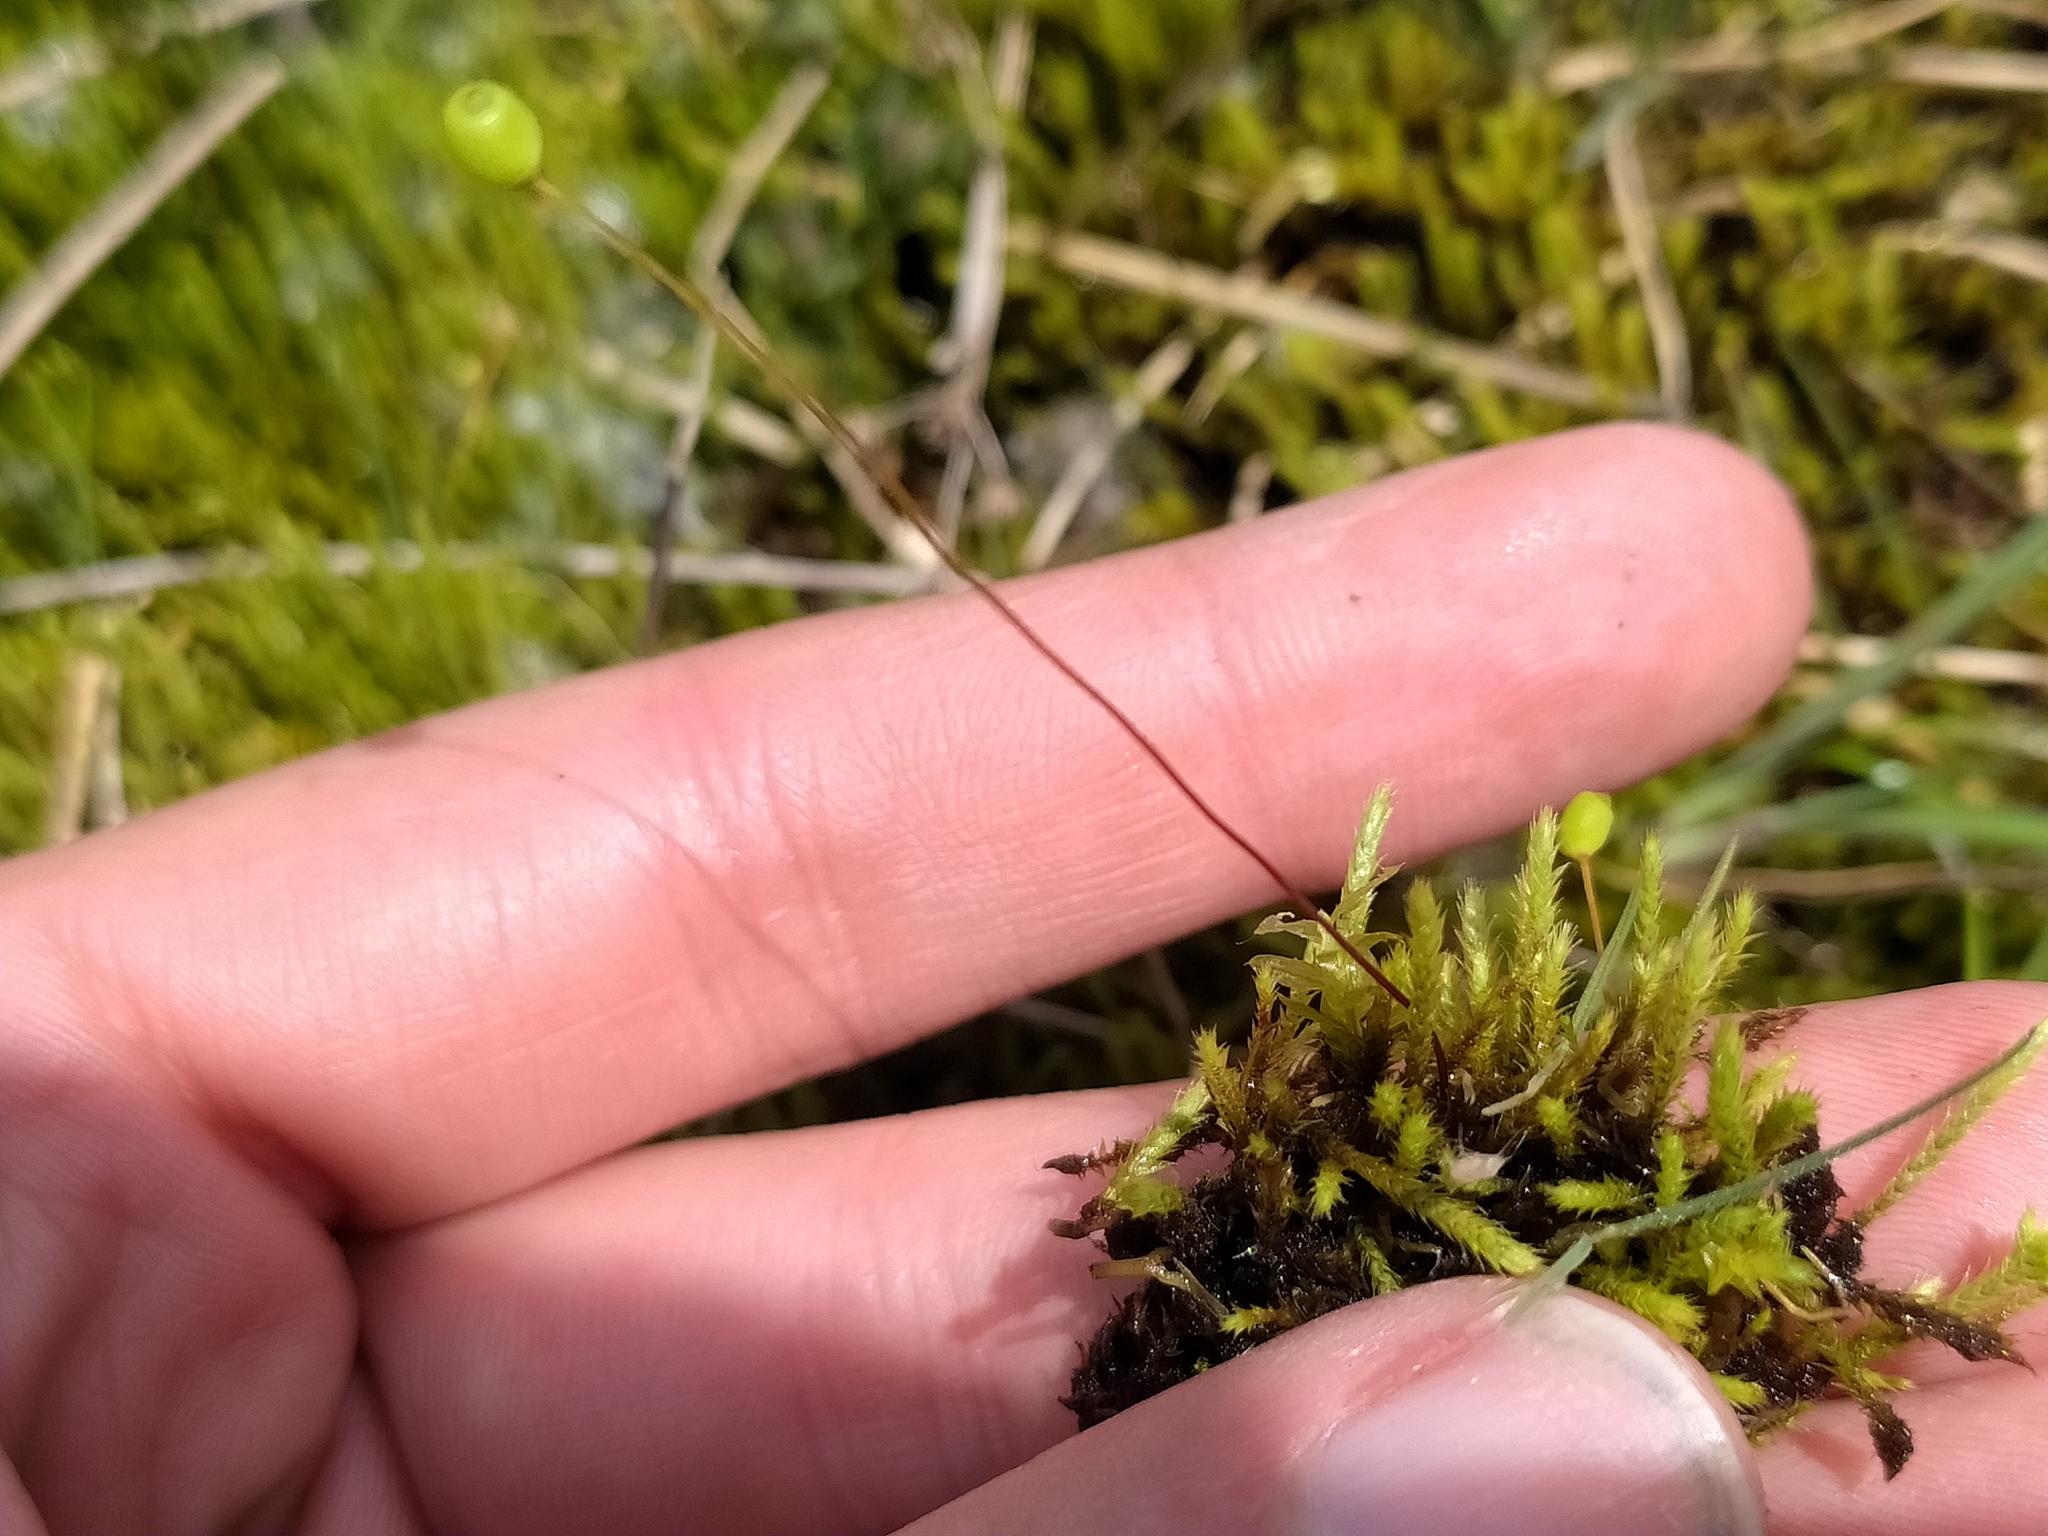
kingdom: Plantae
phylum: Bryophyta
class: Bryopsida
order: Bartramiales
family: Bartramiaceae
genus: Philonotis
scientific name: Philonotis fontana
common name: Fountain apple-moss
